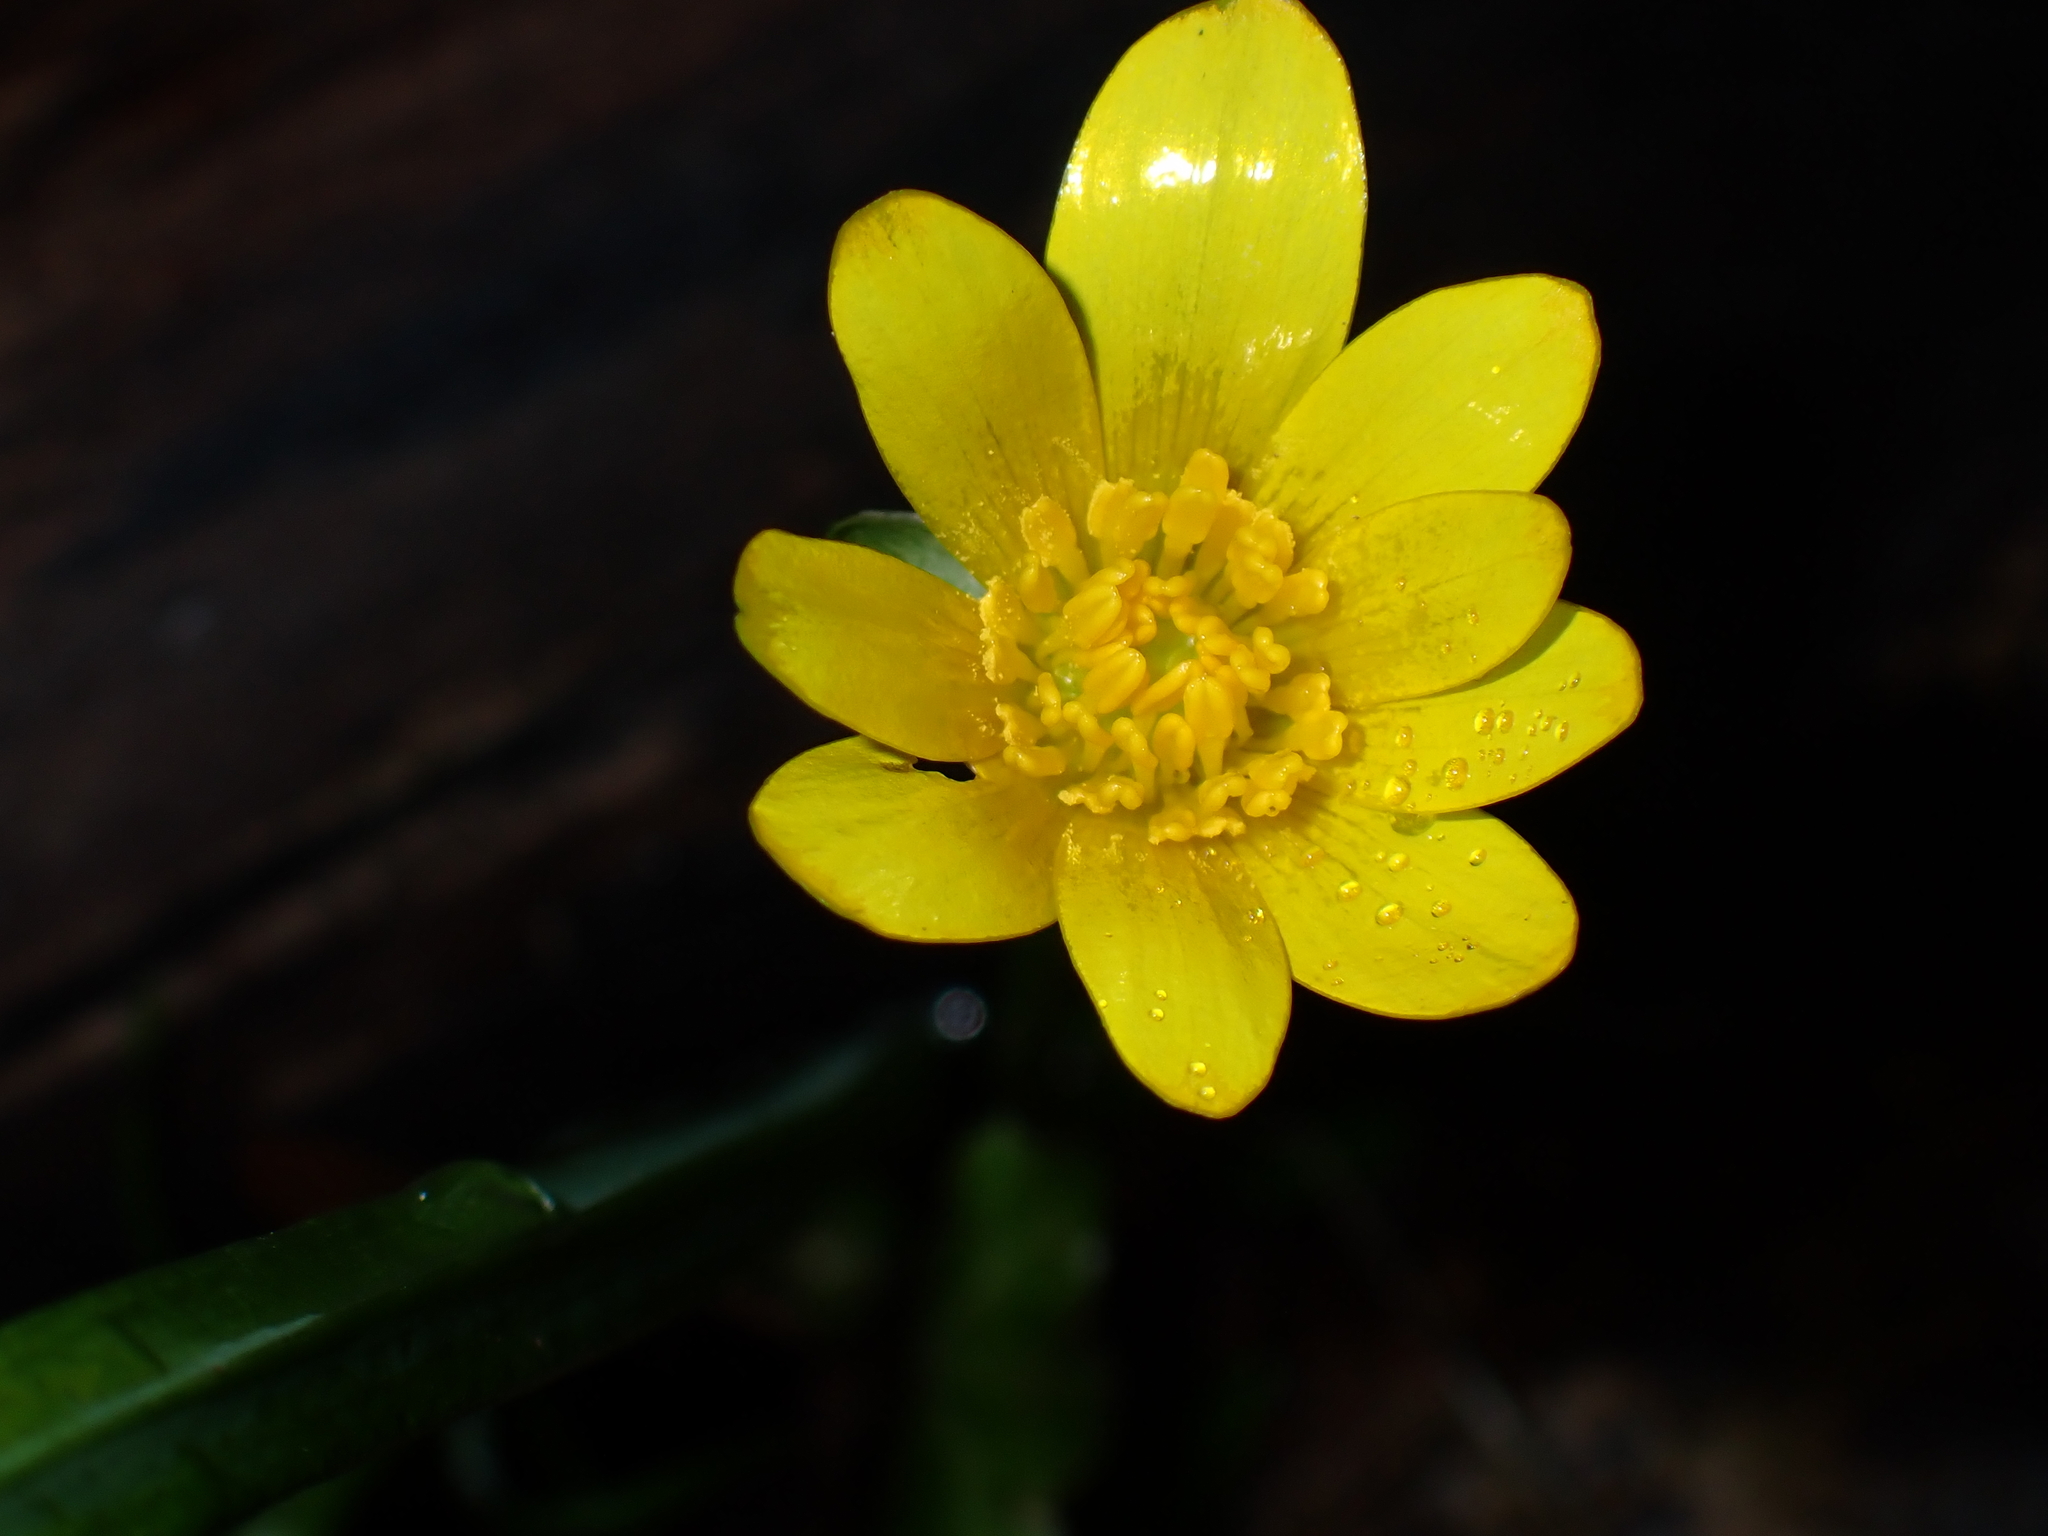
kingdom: Plantae
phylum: Tracheophyta
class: Magnoliopsida
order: Ranunculales
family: Ranunculaceae
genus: Ficaria
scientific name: Ficaria verna
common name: Lesser celandine
